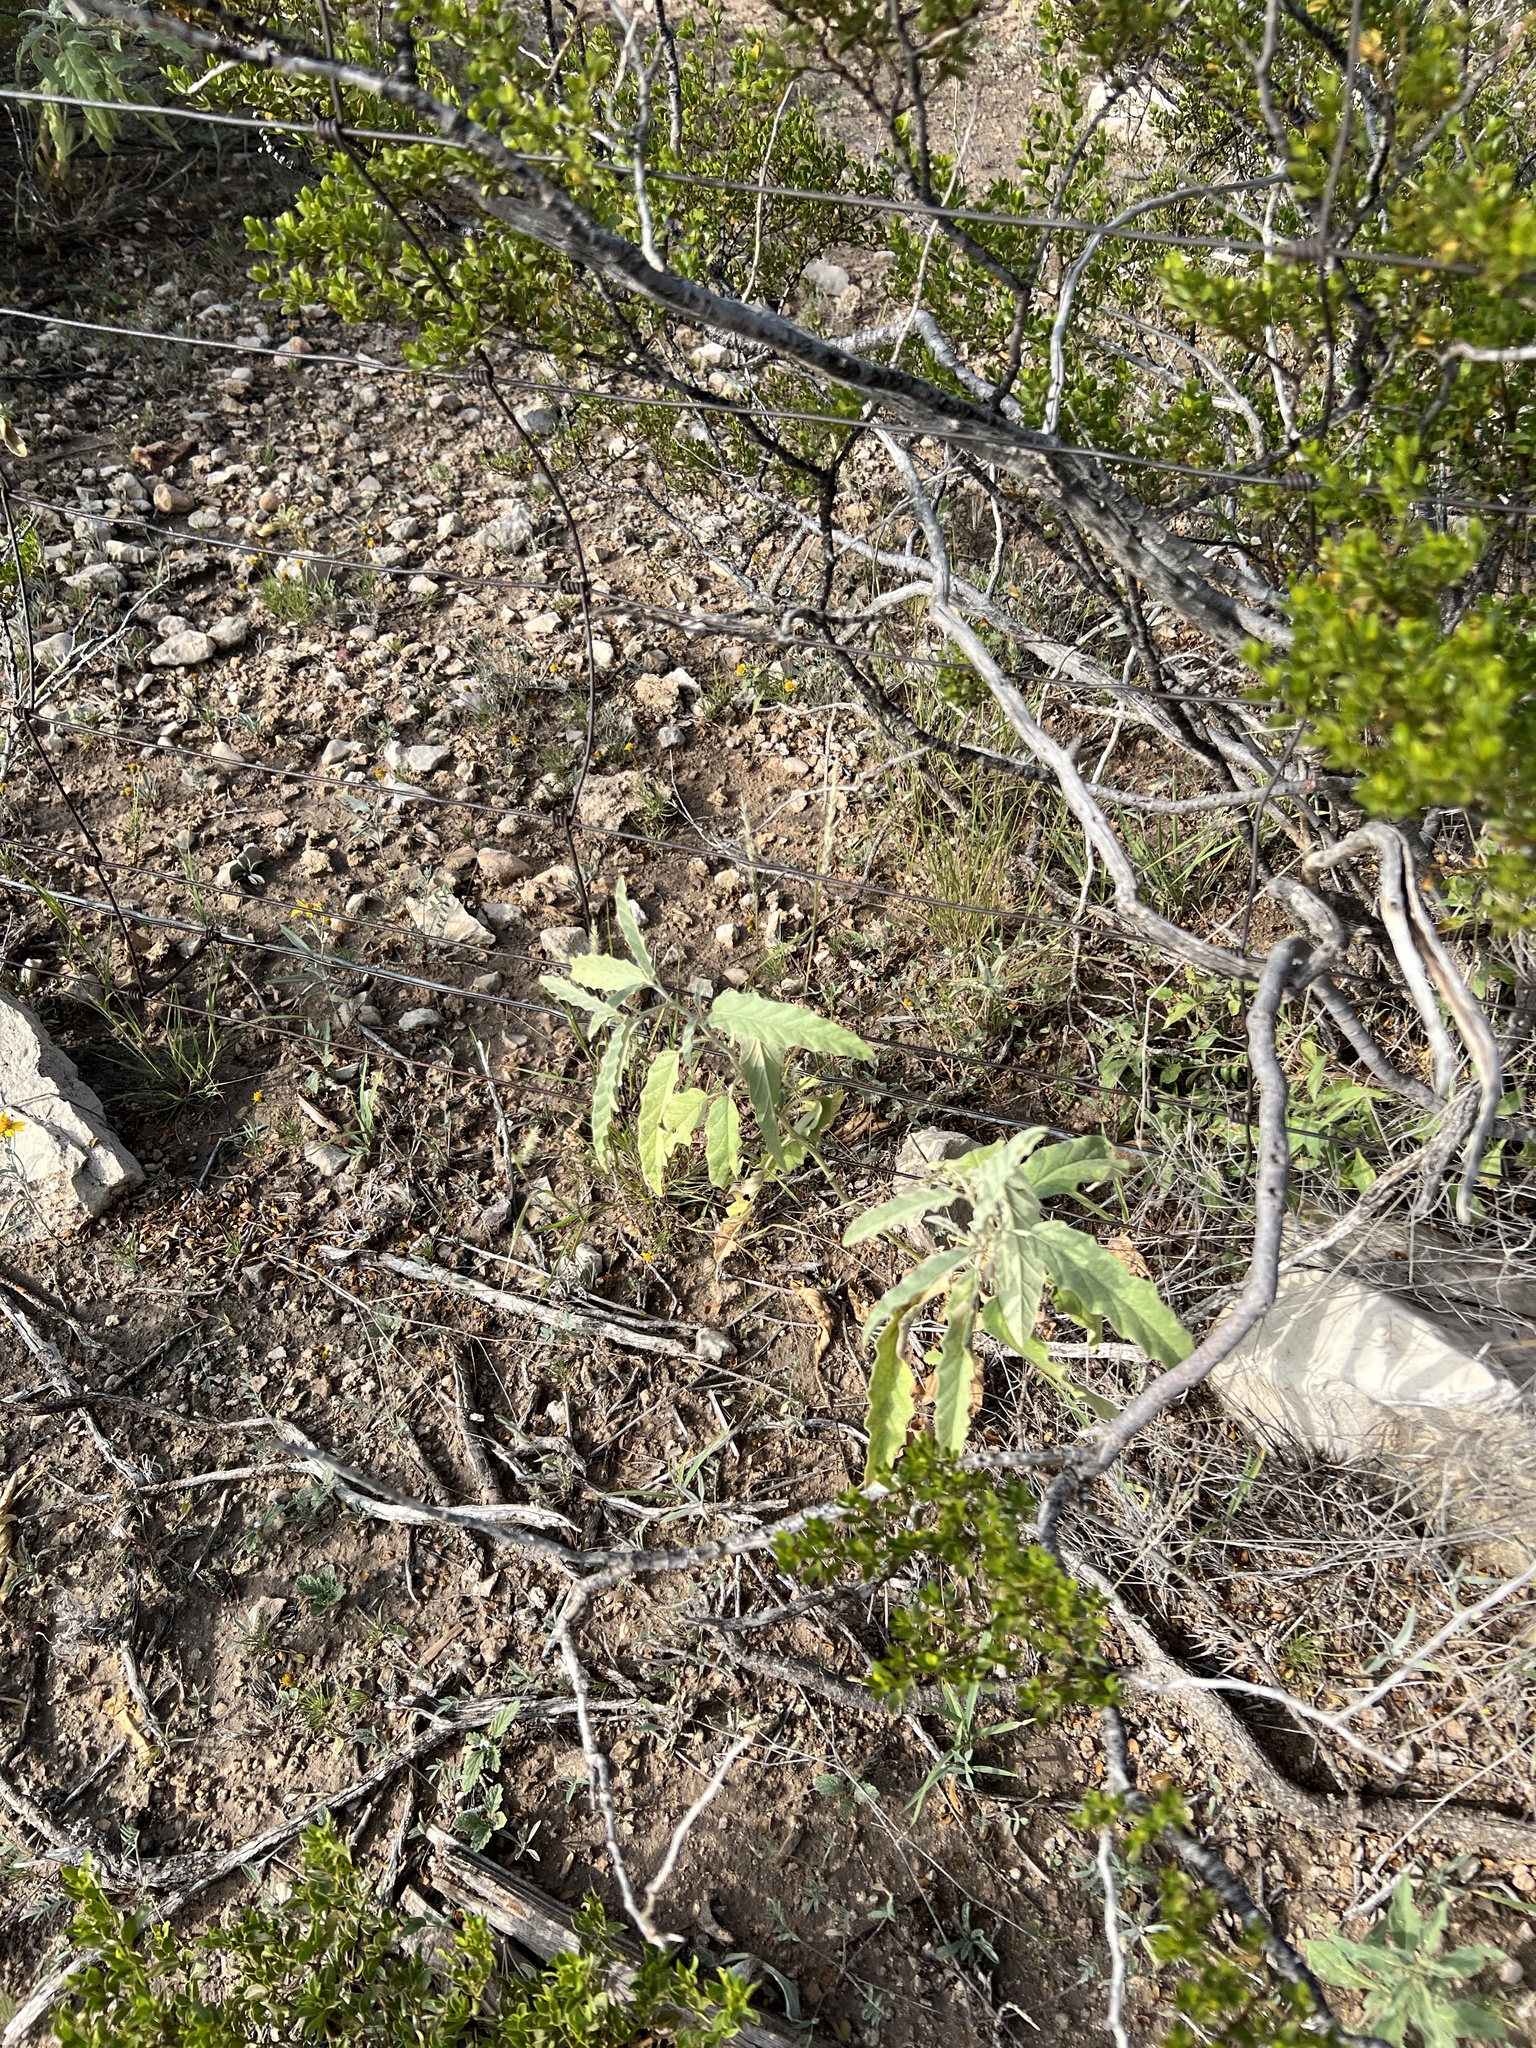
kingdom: Plantae
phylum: Tracheophyta
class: Magnoliopsida
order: Solanales
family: Solanaceae
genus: Solanum
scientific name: Solanum elaeagnifolium
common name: Silverleaf nightshade
